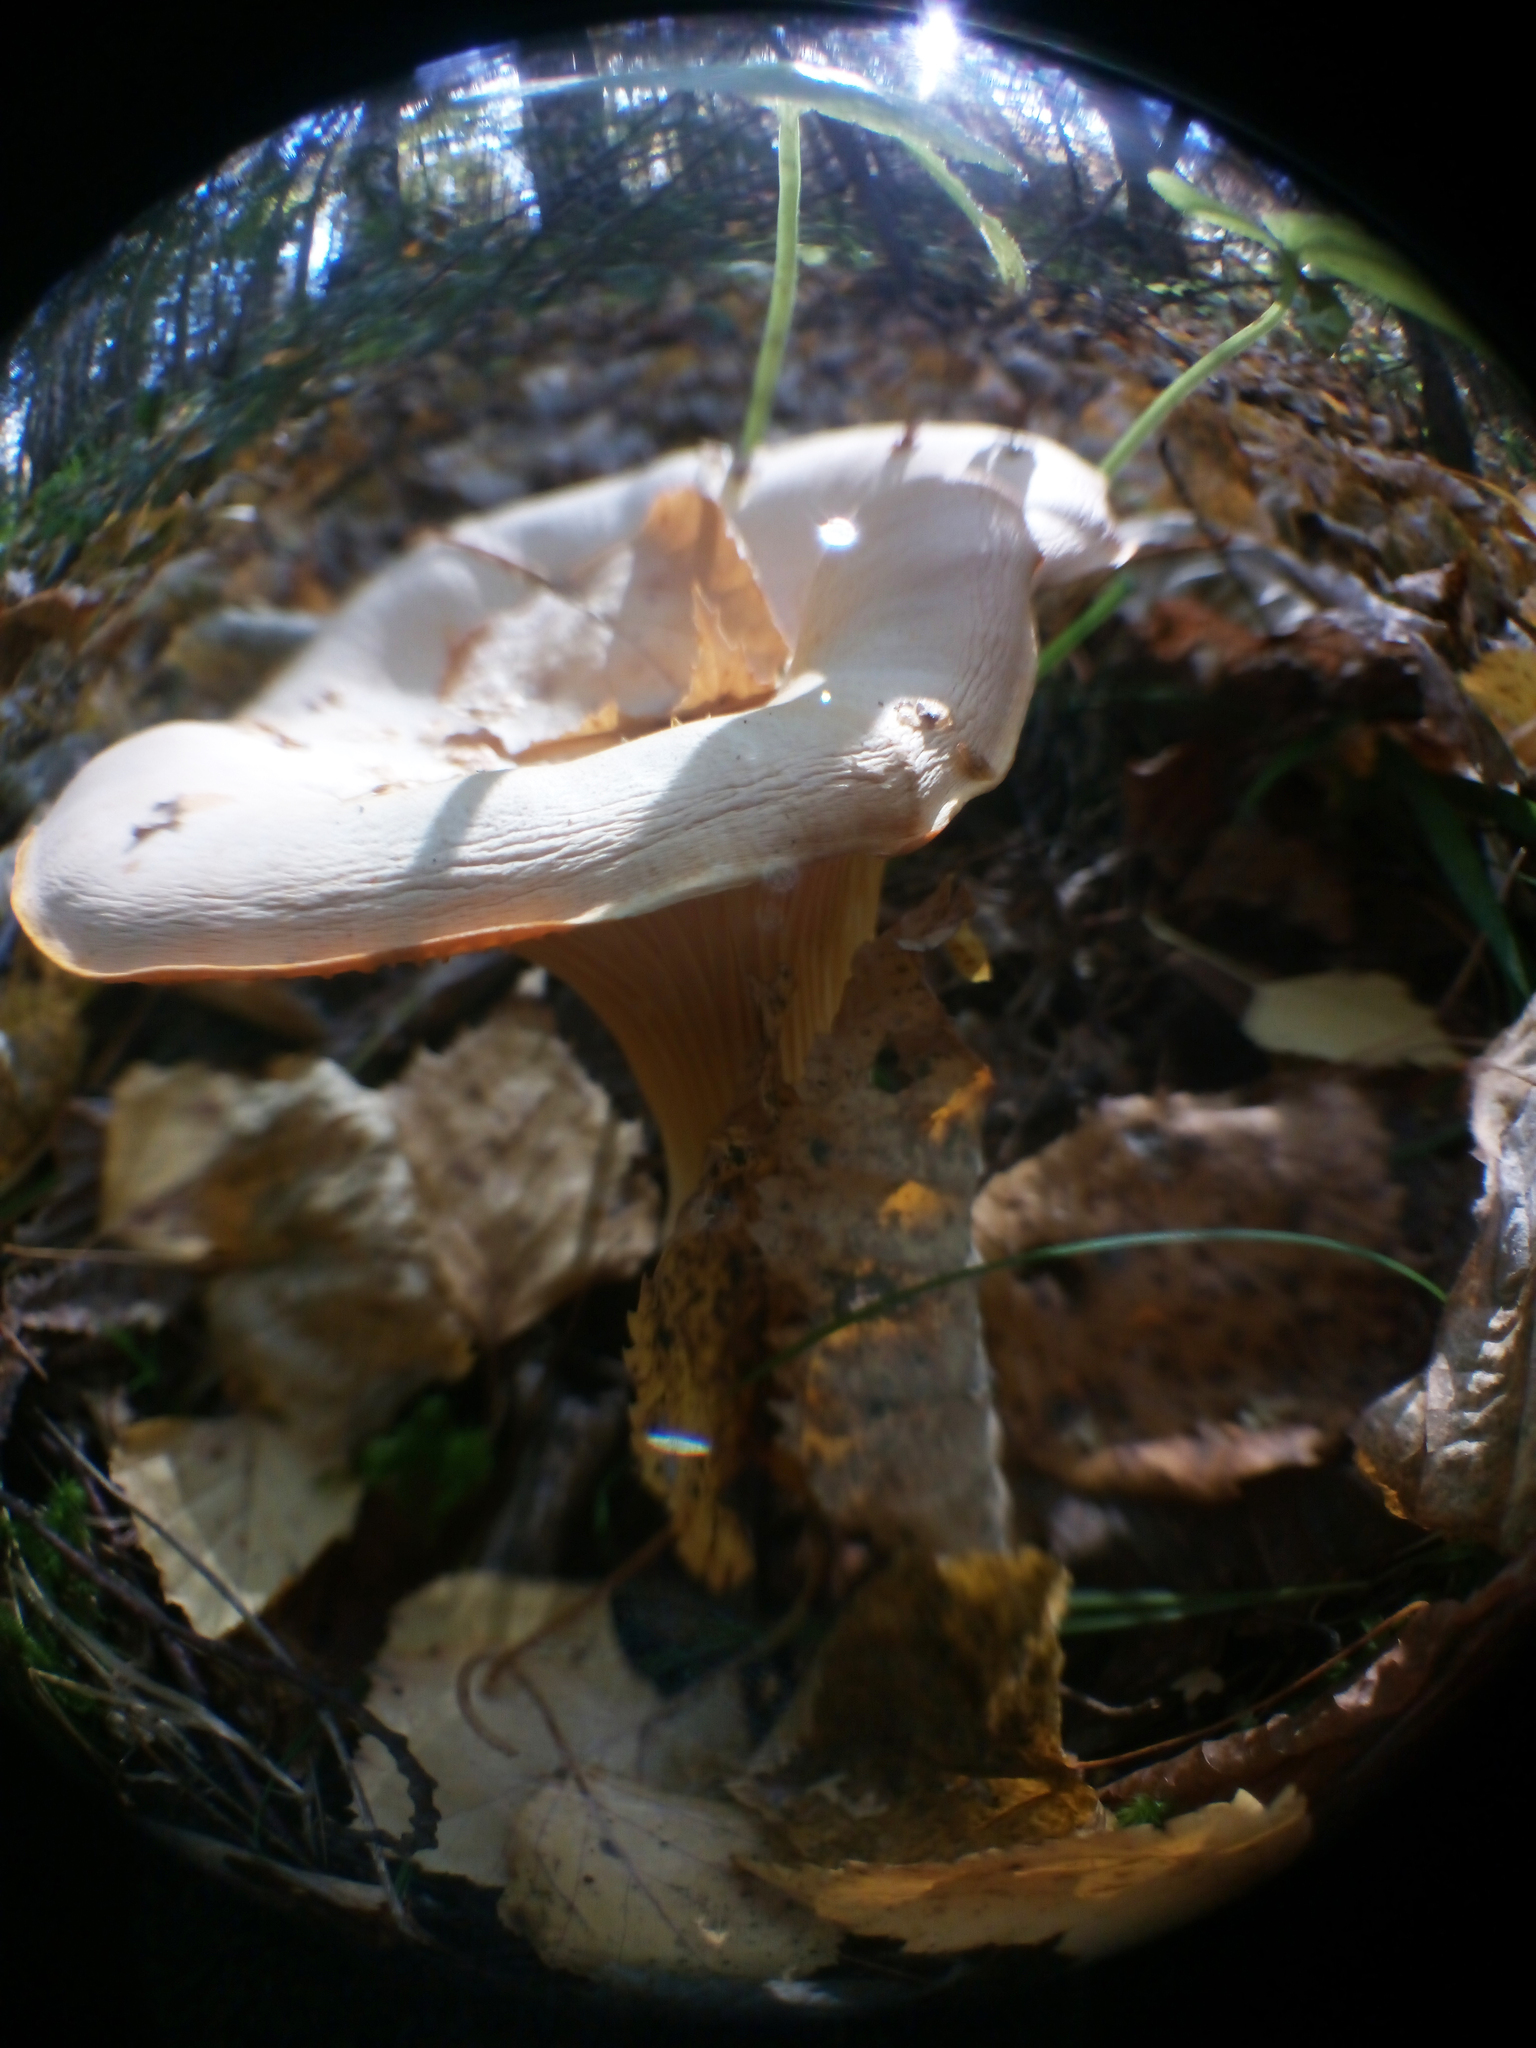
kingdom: Fungi
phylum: Basidiomycota
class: Agaricomycetes
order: Cantharellales
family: Hydnaceae
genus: Cantharellus
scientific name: Cantharellus cibarius
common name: Chanterelle
